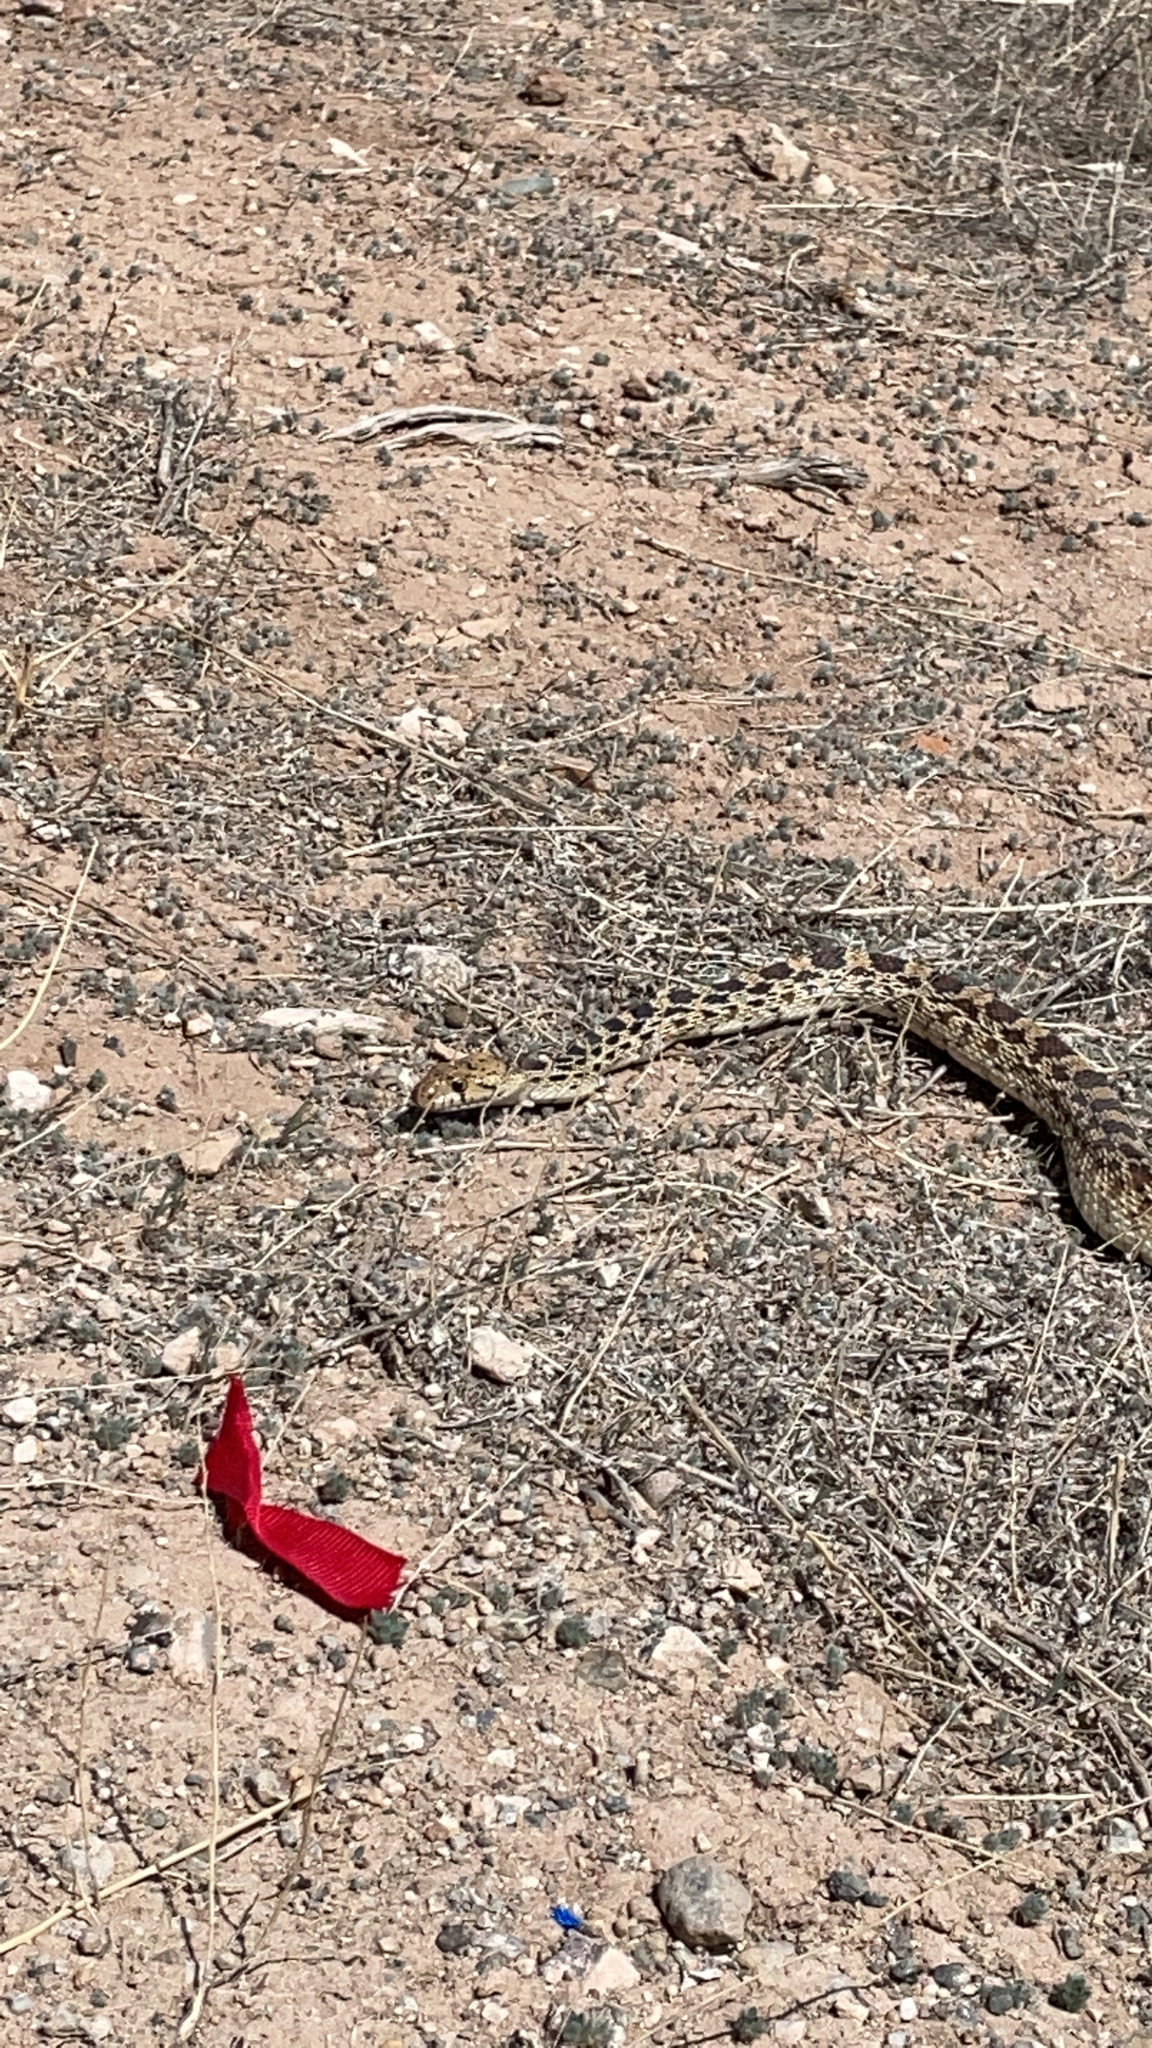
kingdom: Animalia
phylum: Chordata
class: Squamata
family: Colubridae
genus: Pituophis
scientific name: Pituophis catenifer
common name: Gopher snake
